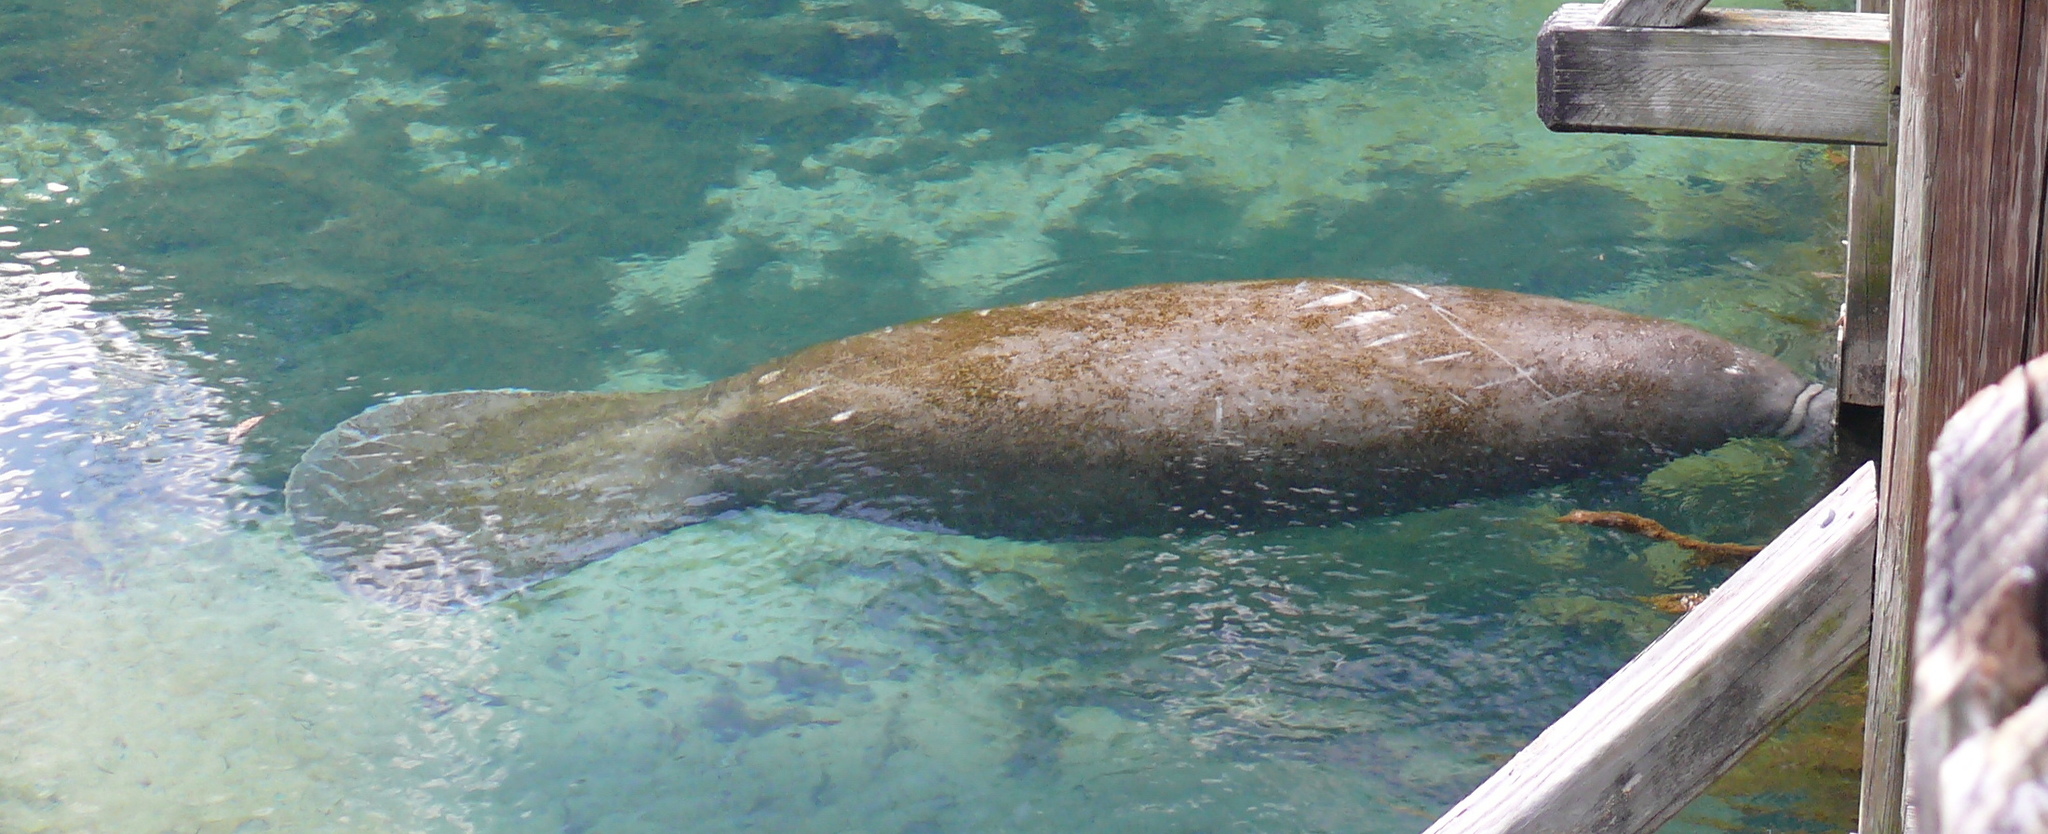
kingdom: Animalia
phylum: Chordata
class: Mammalia
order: Sirenia
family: Trichechidae
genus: Trichechus
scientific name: Trichechus manatus
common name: West indian manatee
